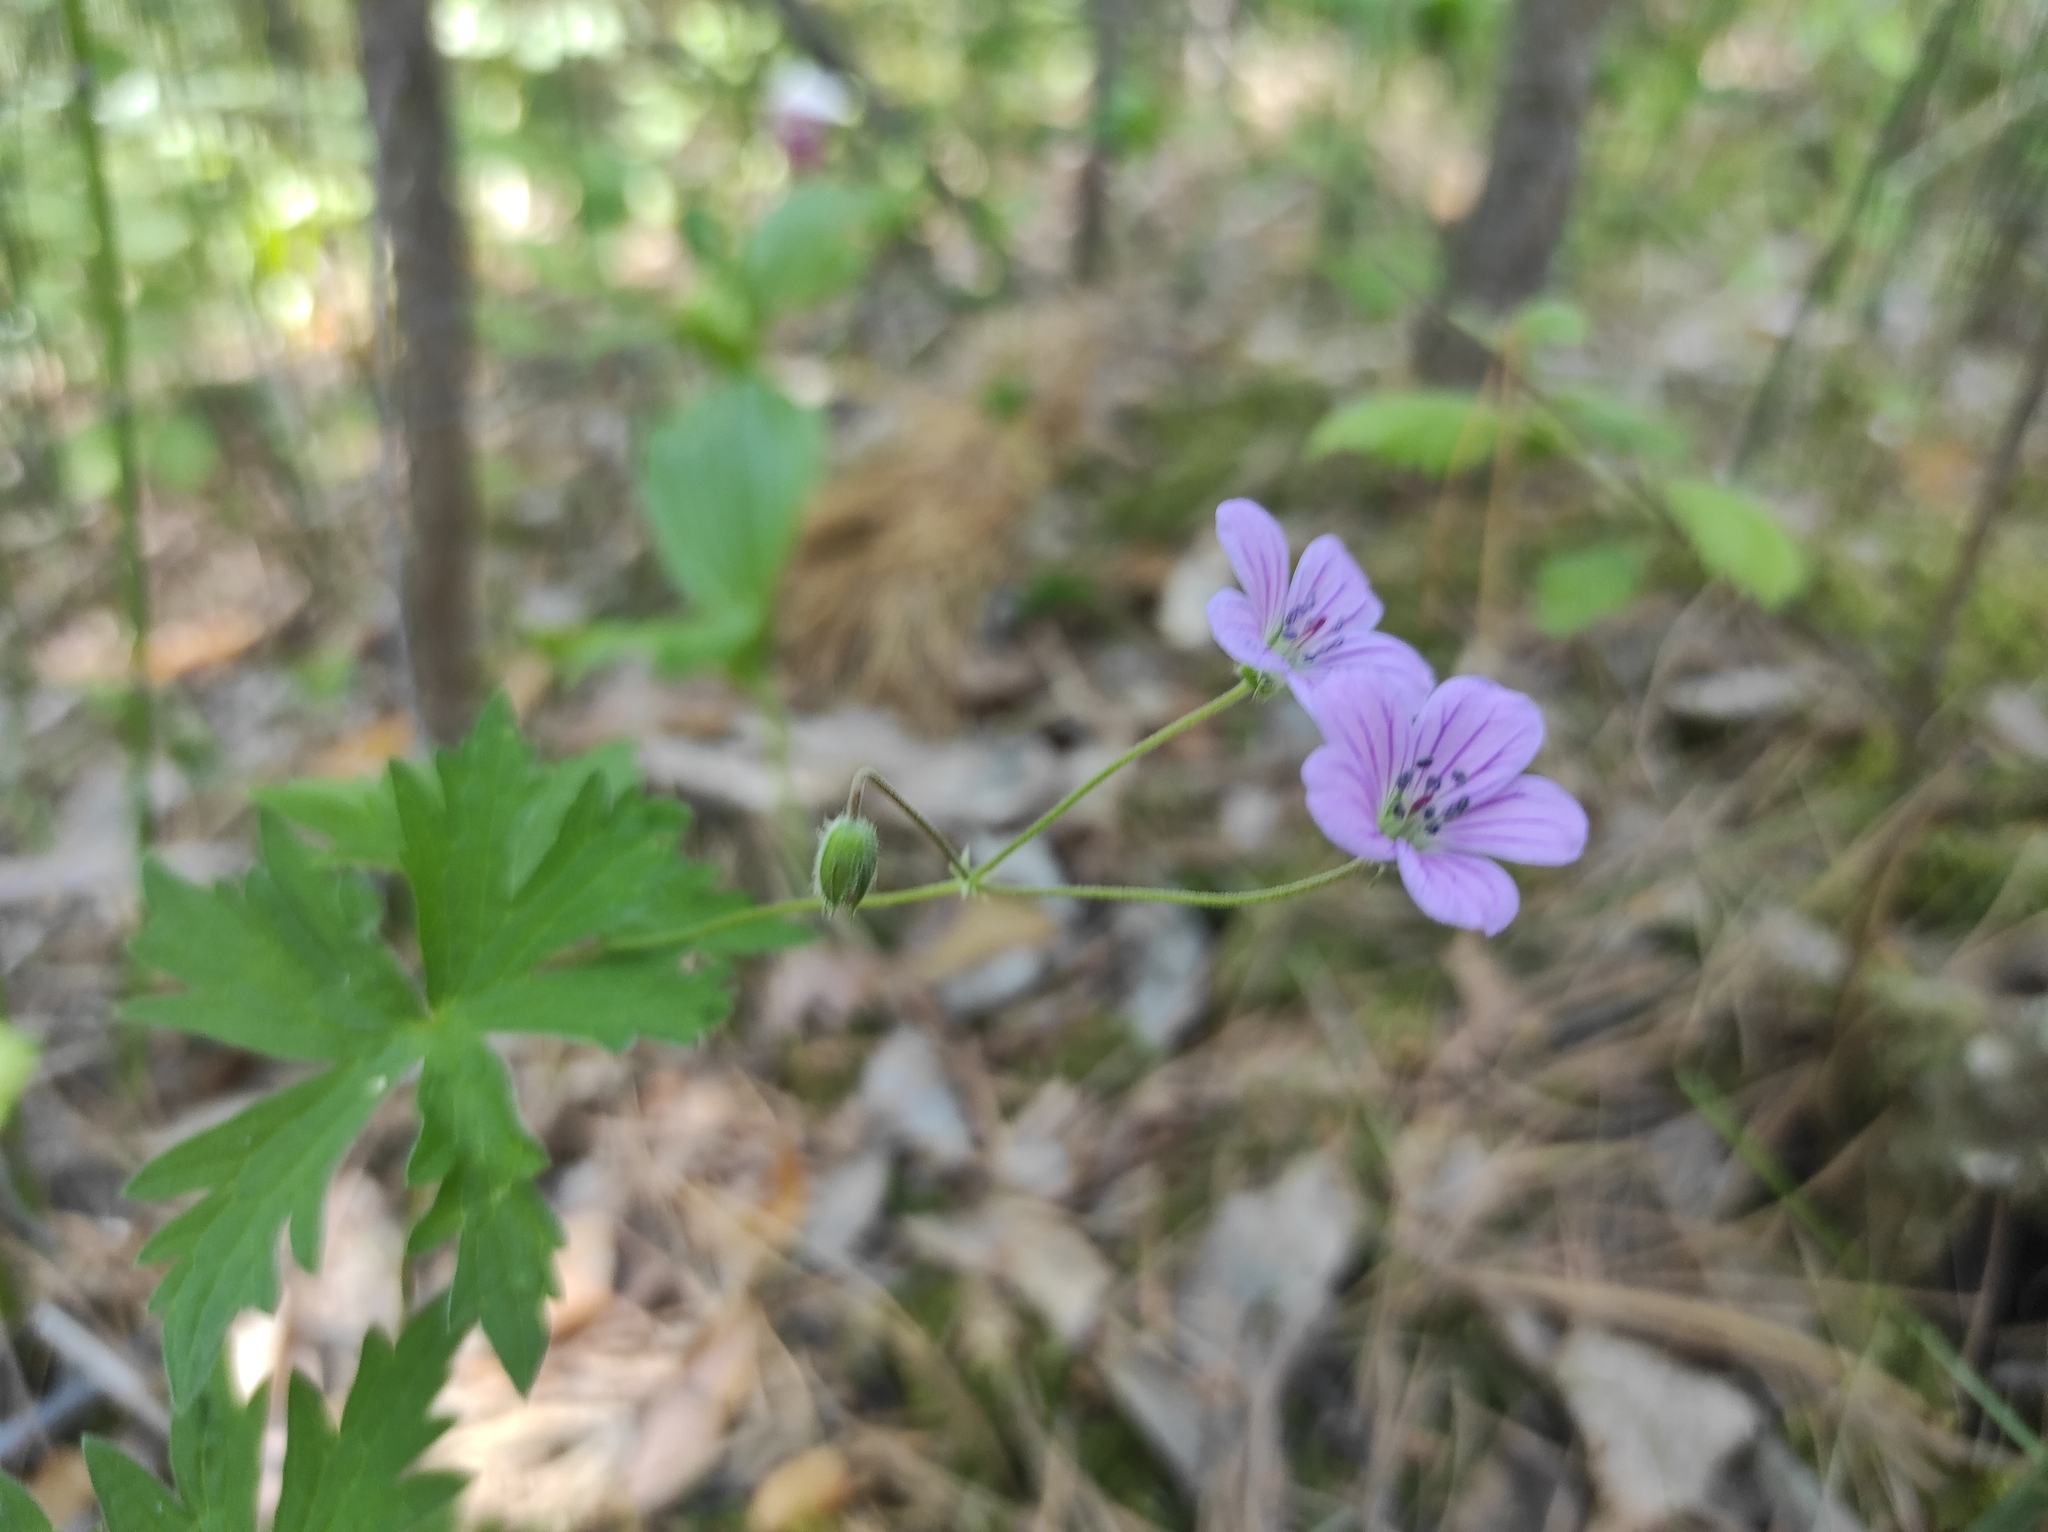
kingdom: Plantae
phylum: Tracheophyta
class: Magnoliopsida
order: Geraniales
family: Geraniaceae
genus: Geranium
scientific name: Geranium pseudosibiricum
